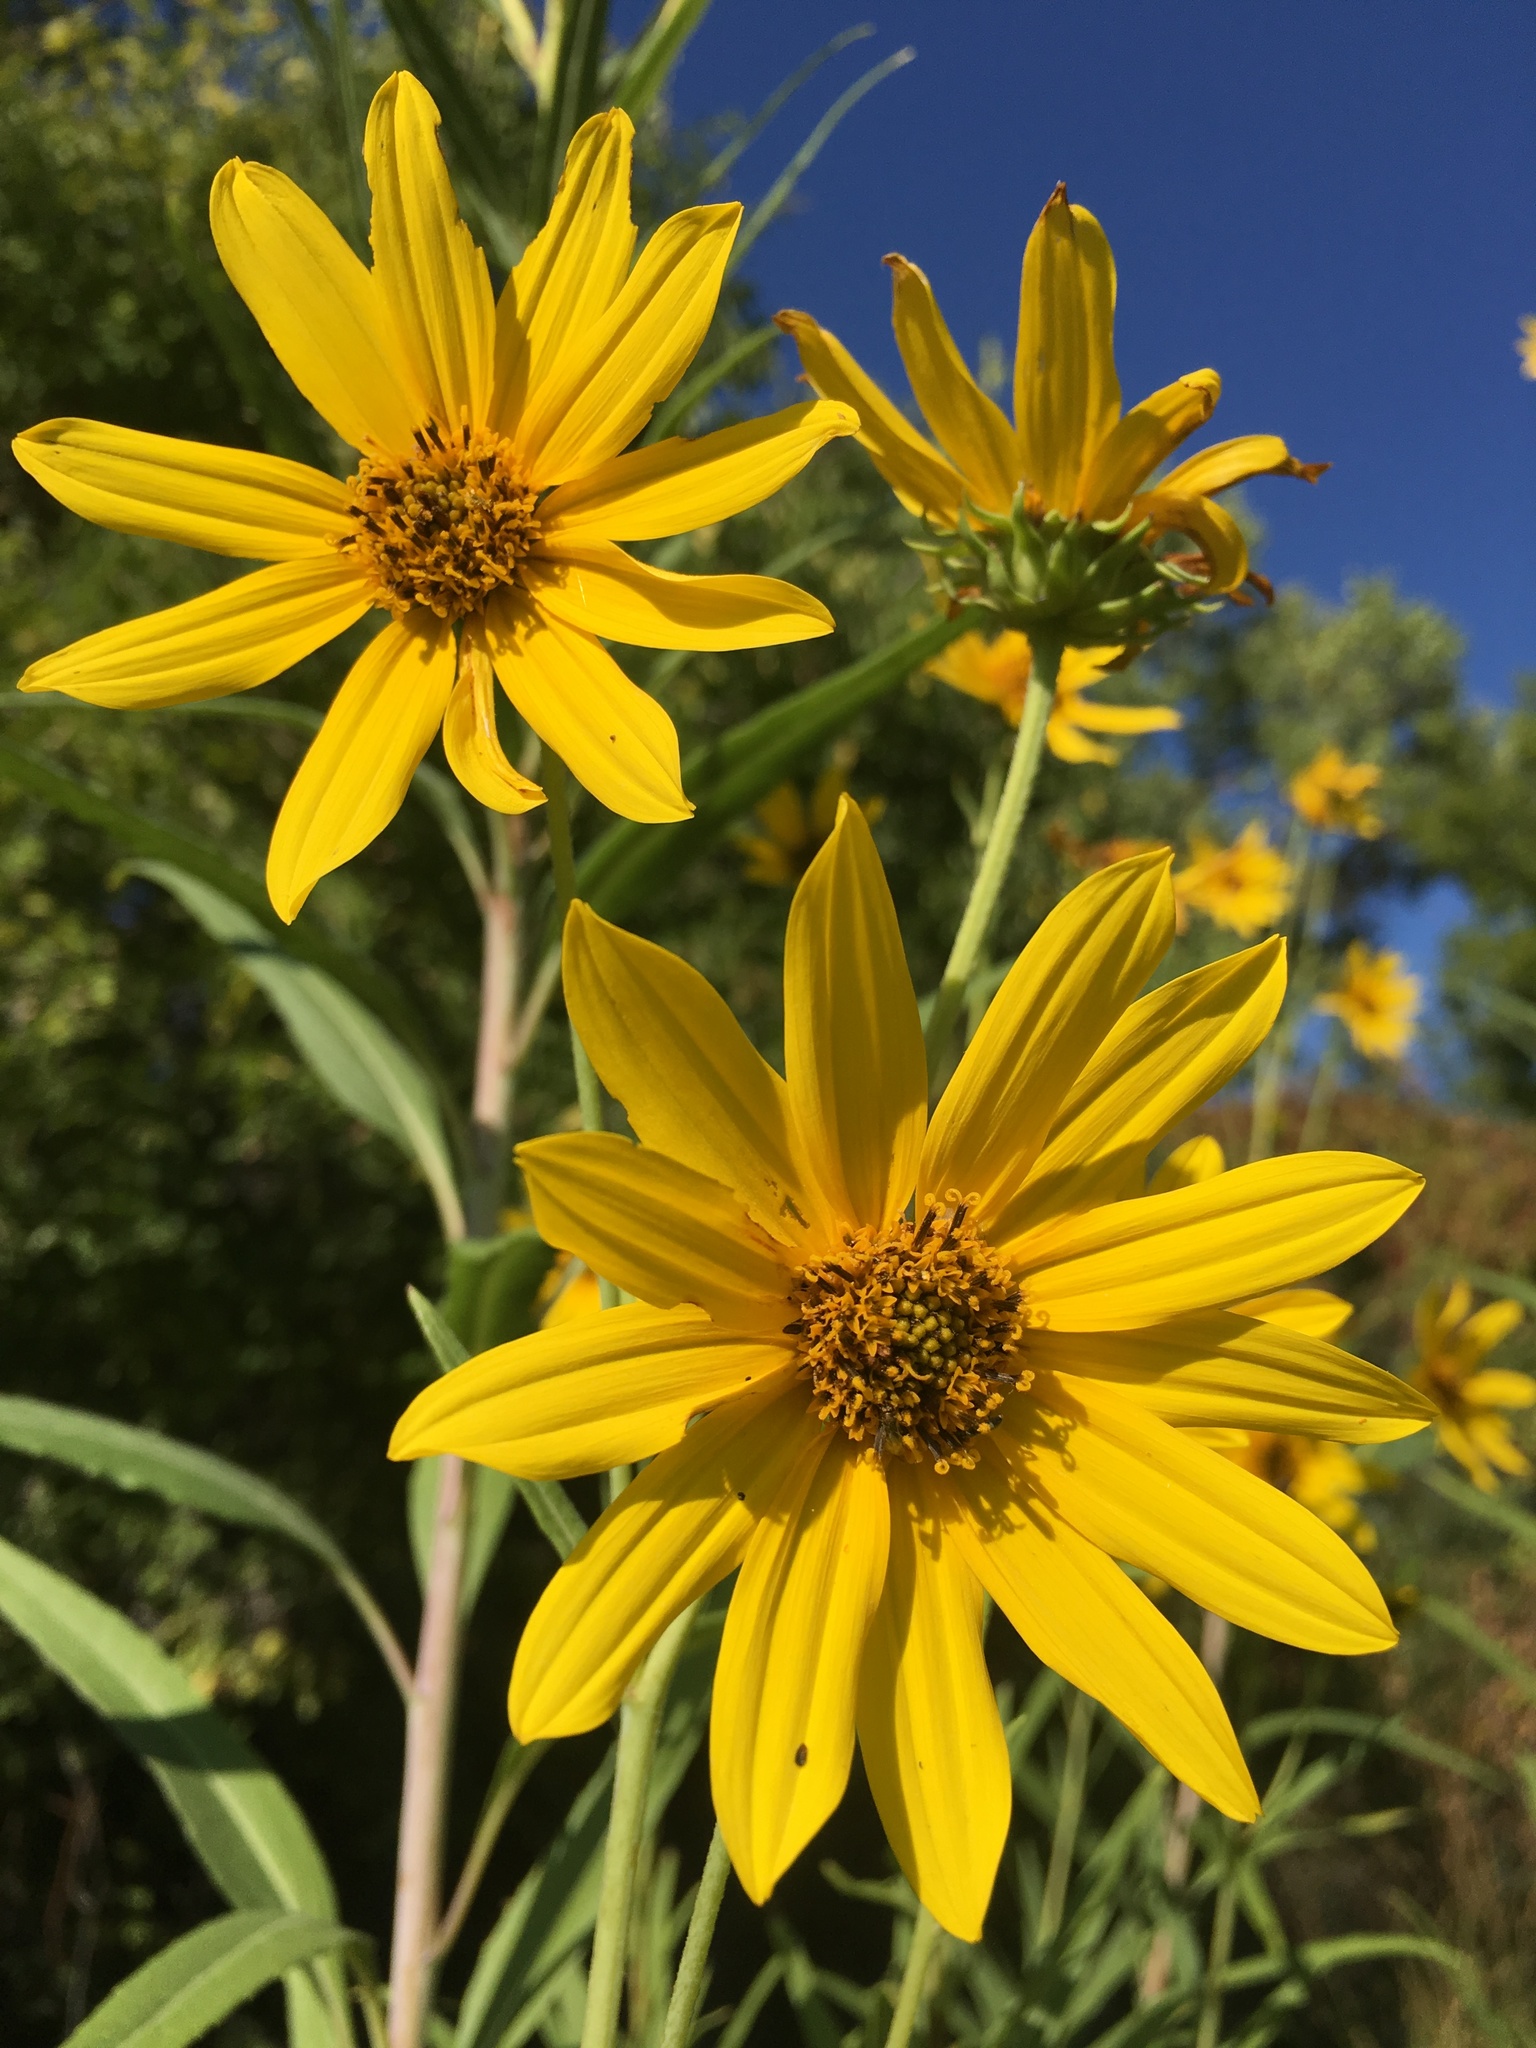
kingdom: Plantae
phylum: Tracheophyta
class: Magnoliopsida
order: Asterales
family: Asteraceae
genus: Helianthus
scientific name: Helianthus nuttallii
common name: Nuttall's sunflower
